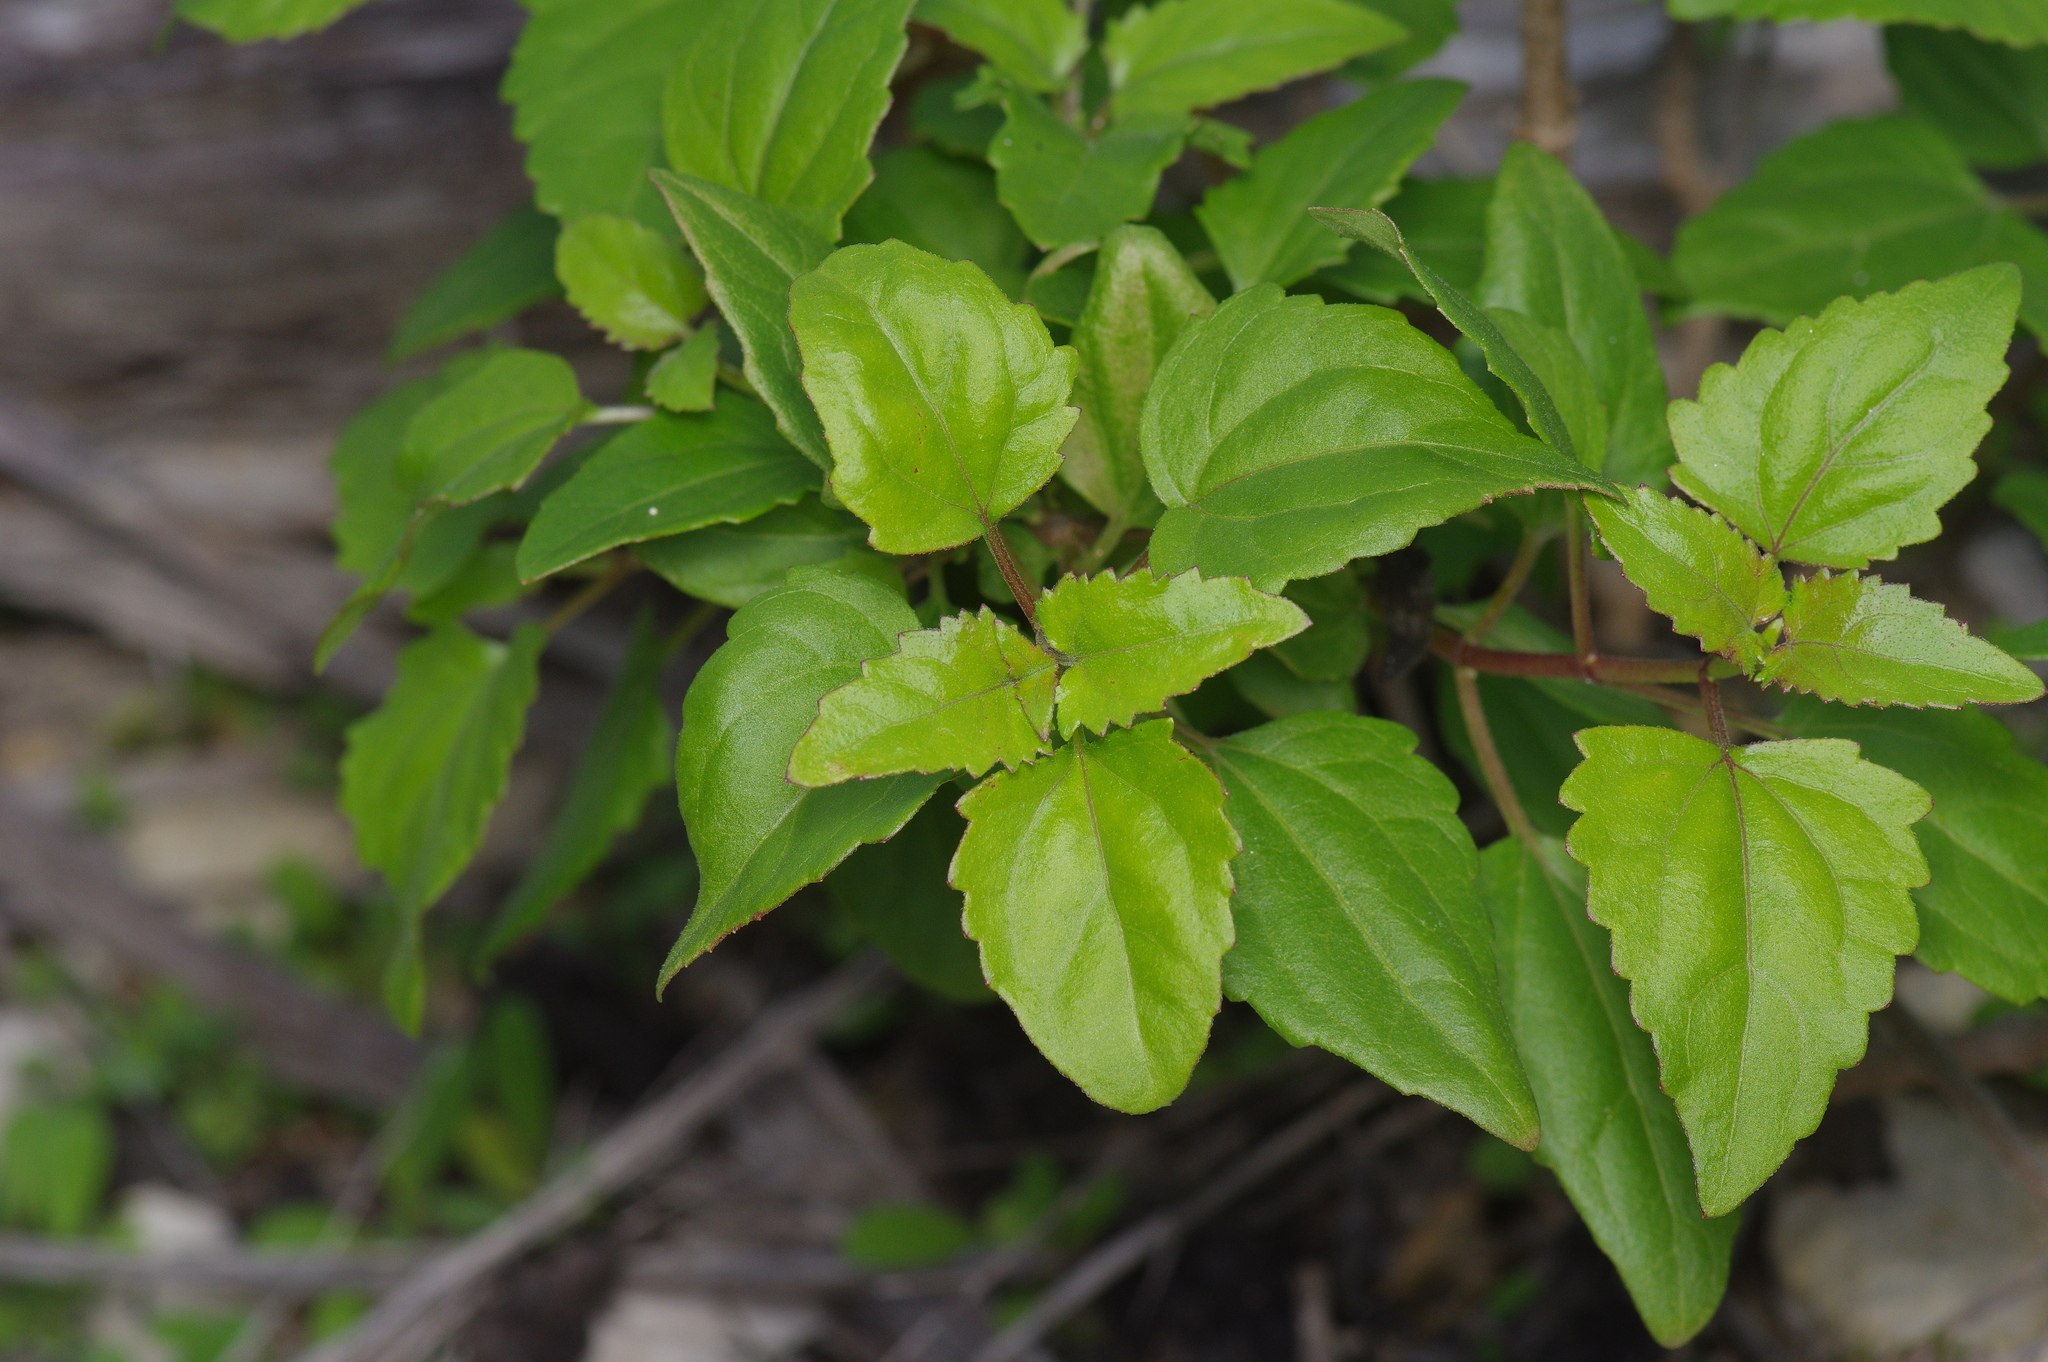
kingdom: Plantae
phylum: Tracheophyta
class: Magnoliopsida
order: Asterales
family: Asteraceae
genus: Ageratina
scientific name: Ageratina havanensis
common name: Havana snakeroot
